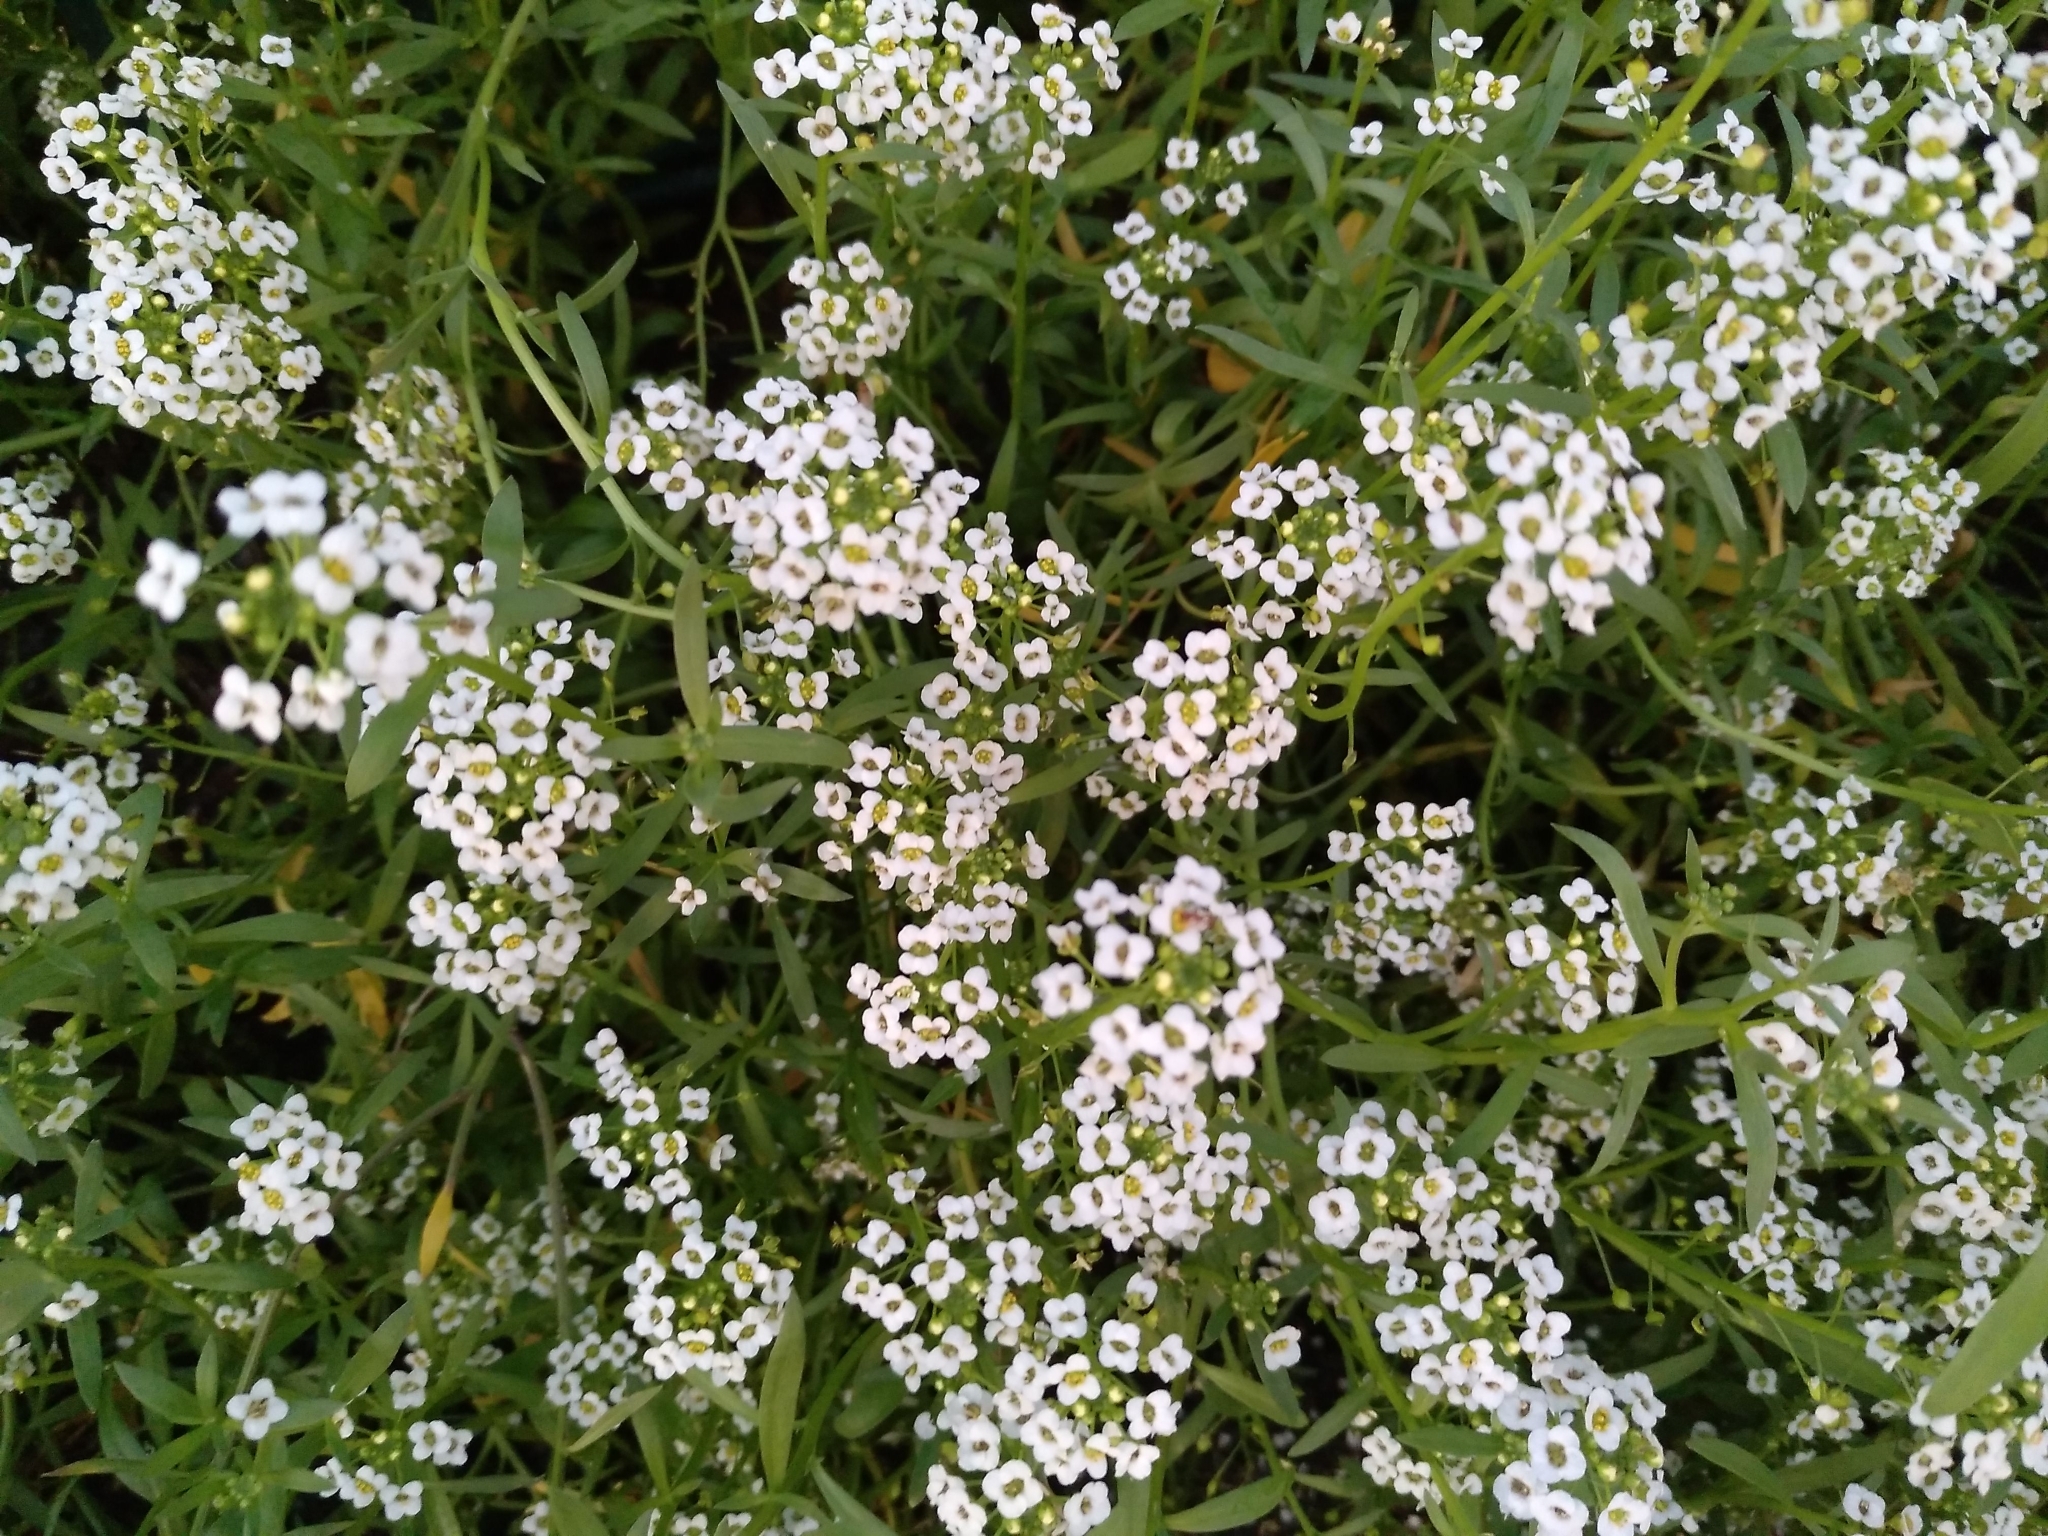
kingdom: Plantae
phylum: Tracheophyta
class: Magnoliopsida
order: Brassicales
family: Brassicaceae
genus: Lobularia
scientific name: Lobularia maritima
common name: Sweet alison
